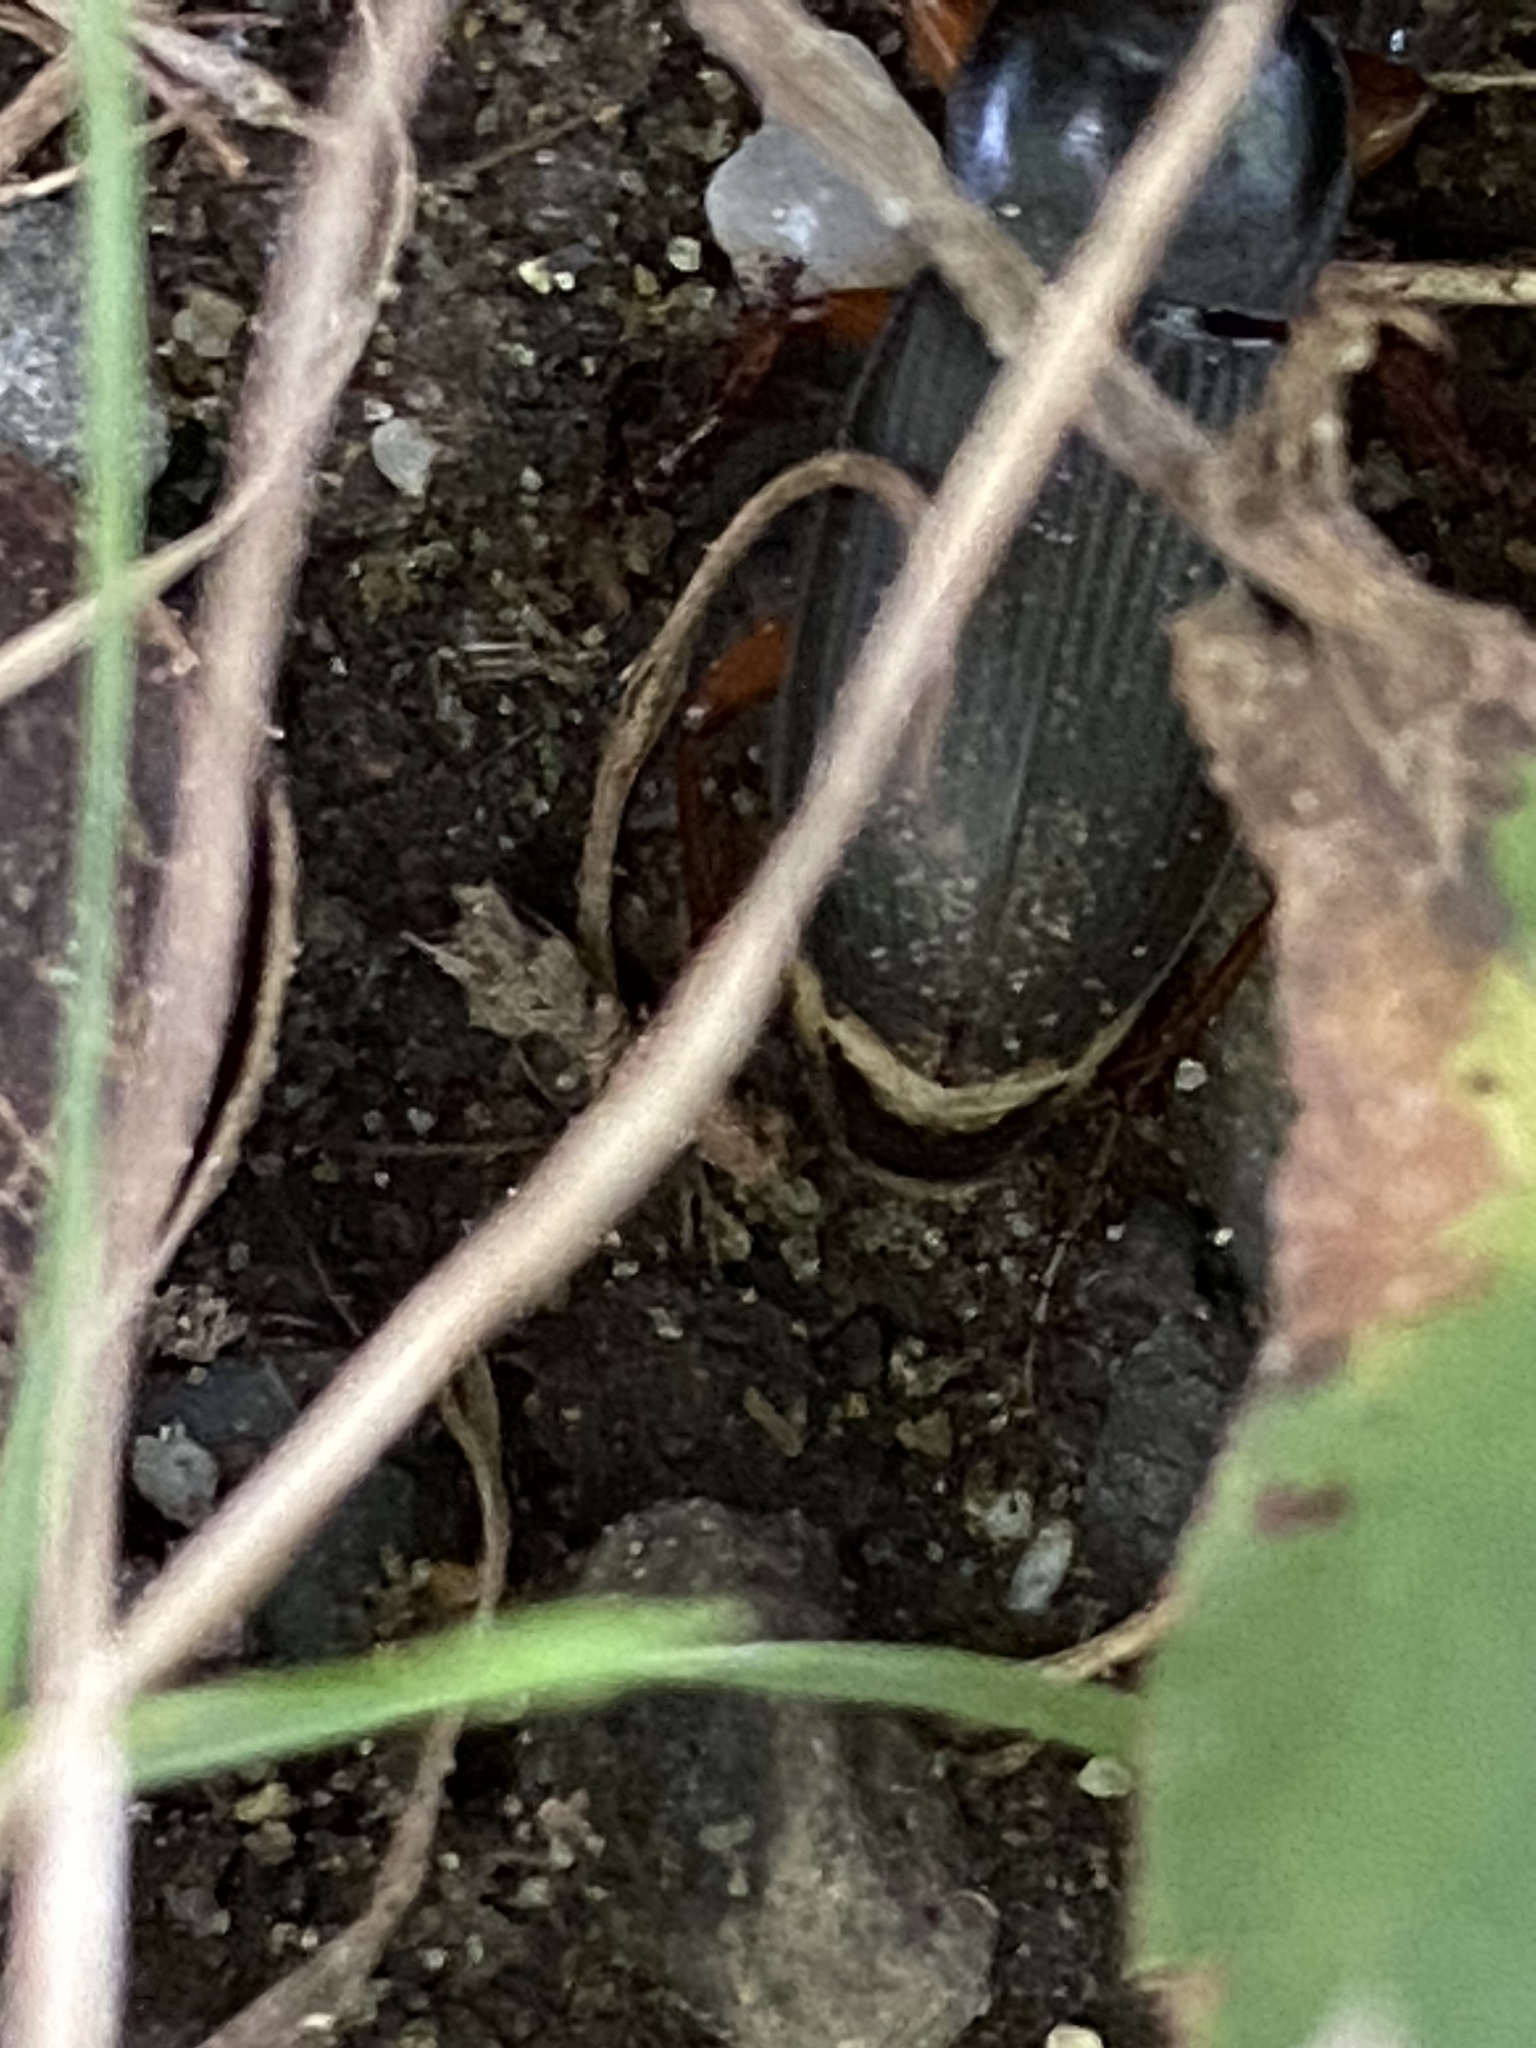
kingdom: Animalia
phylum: Arthropoda
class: Insecta
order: Coleoptera
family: Carabidae
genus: Harpalus
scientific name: Harpalus rufipes
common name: Strawberry harp ground beetle
